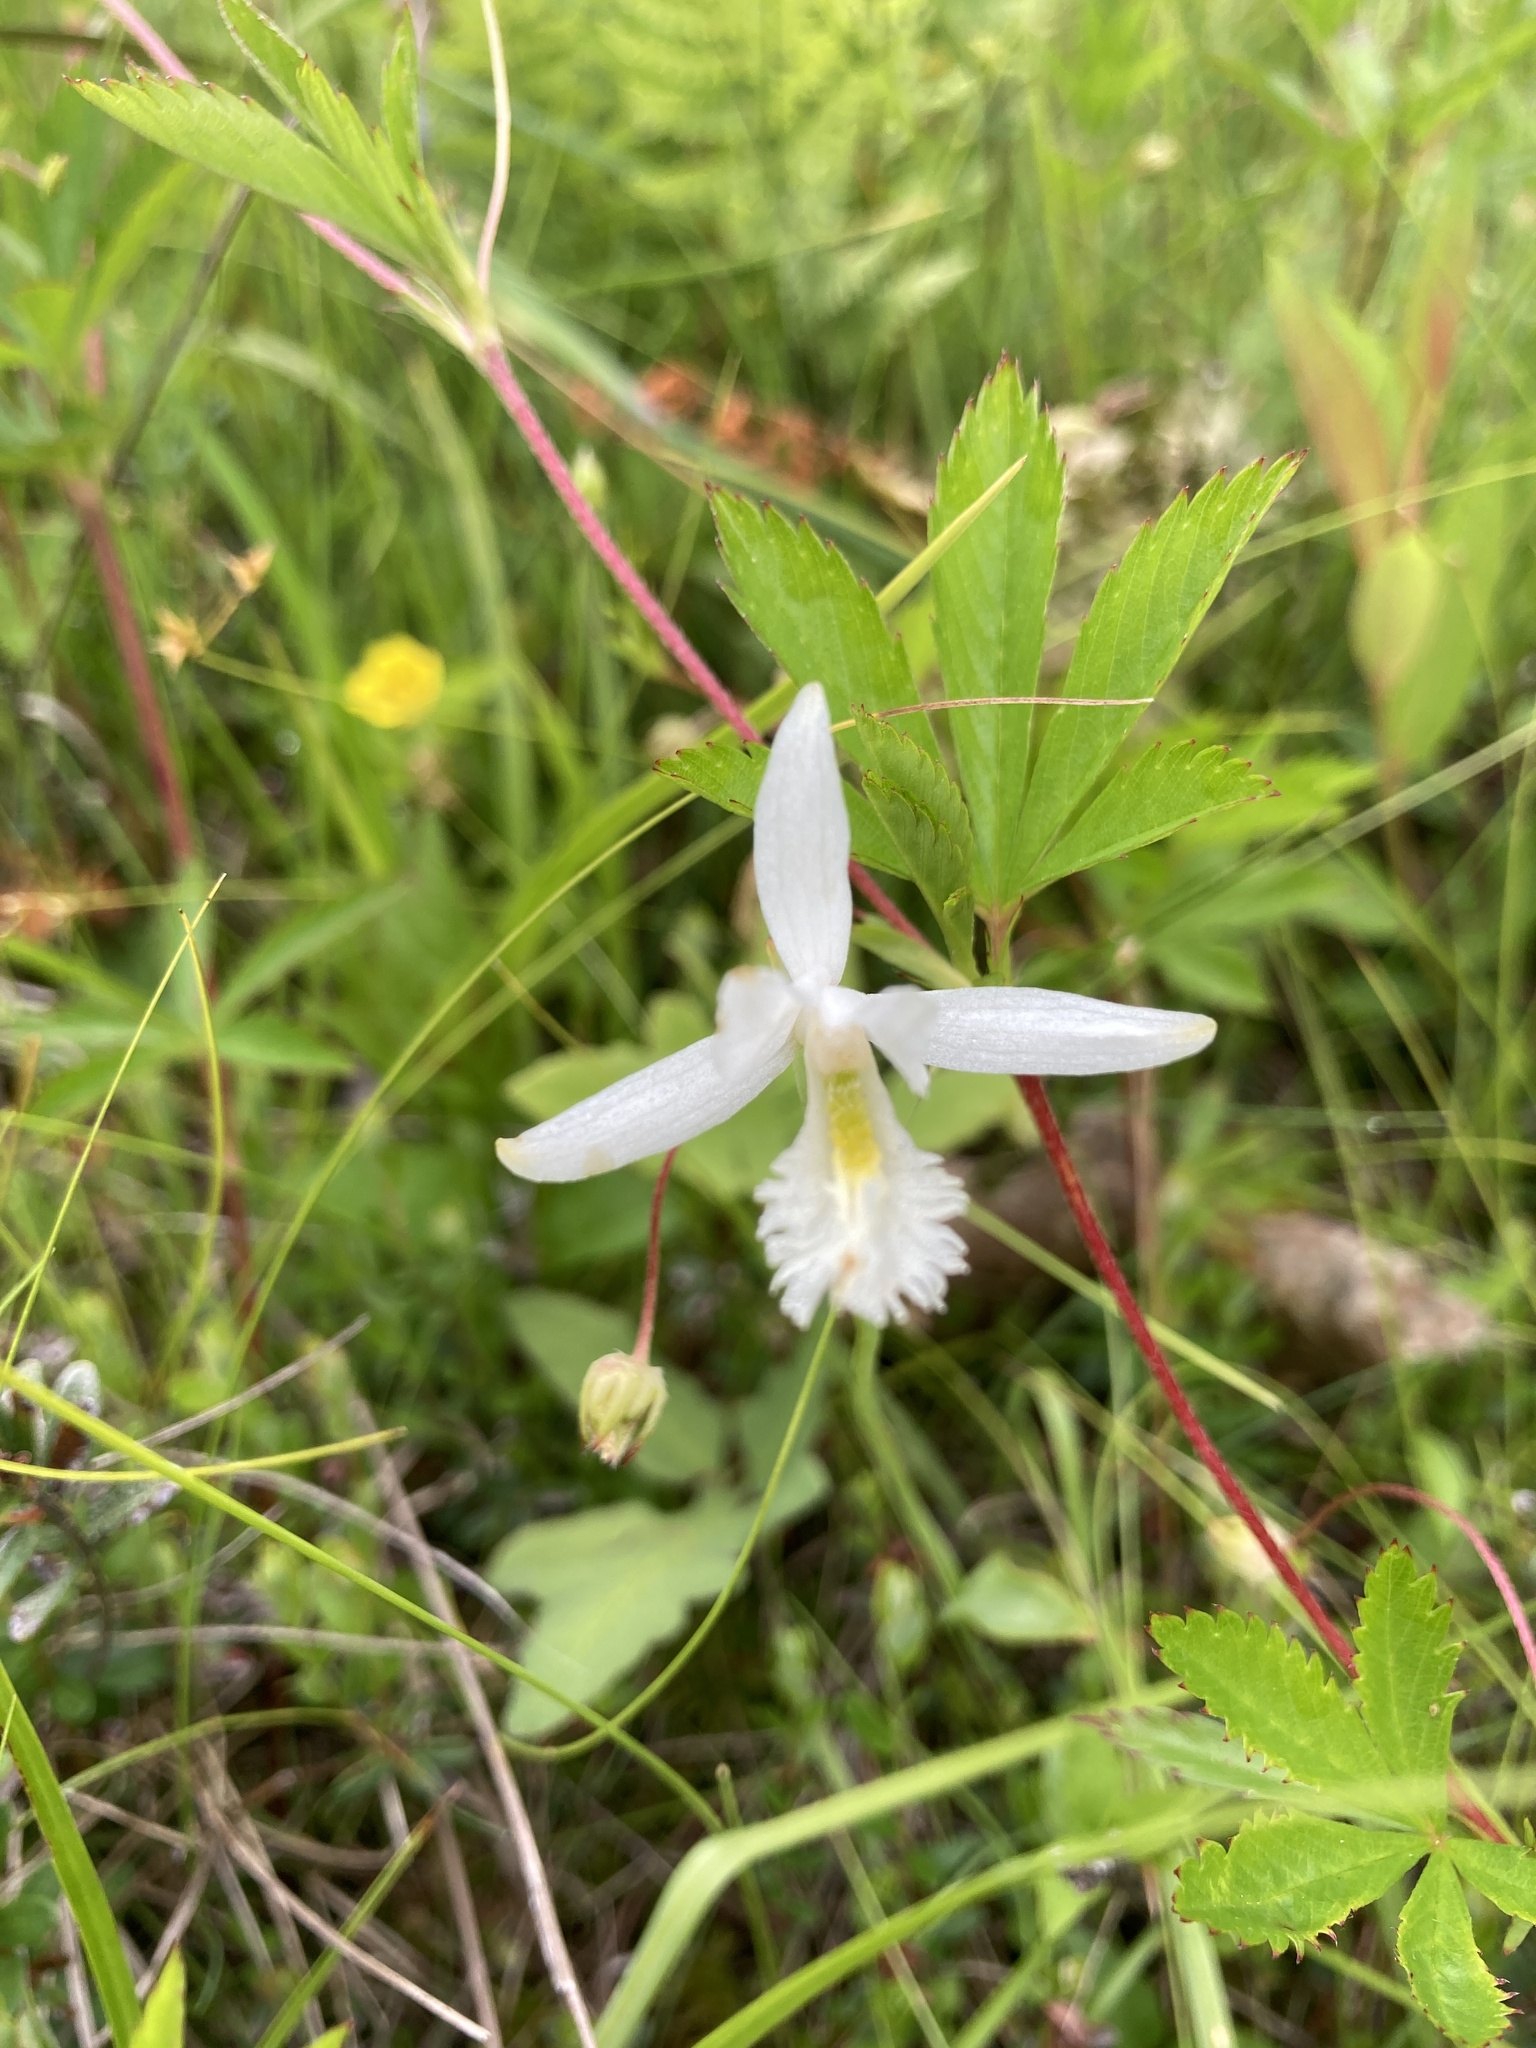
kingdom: Plantae
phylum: Tracheophyta
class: Liliopsida
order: Asparagales
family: Orchidaceae
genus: Pogonia
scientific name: Pogonia ophioglossoides
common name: Rose pogonia
